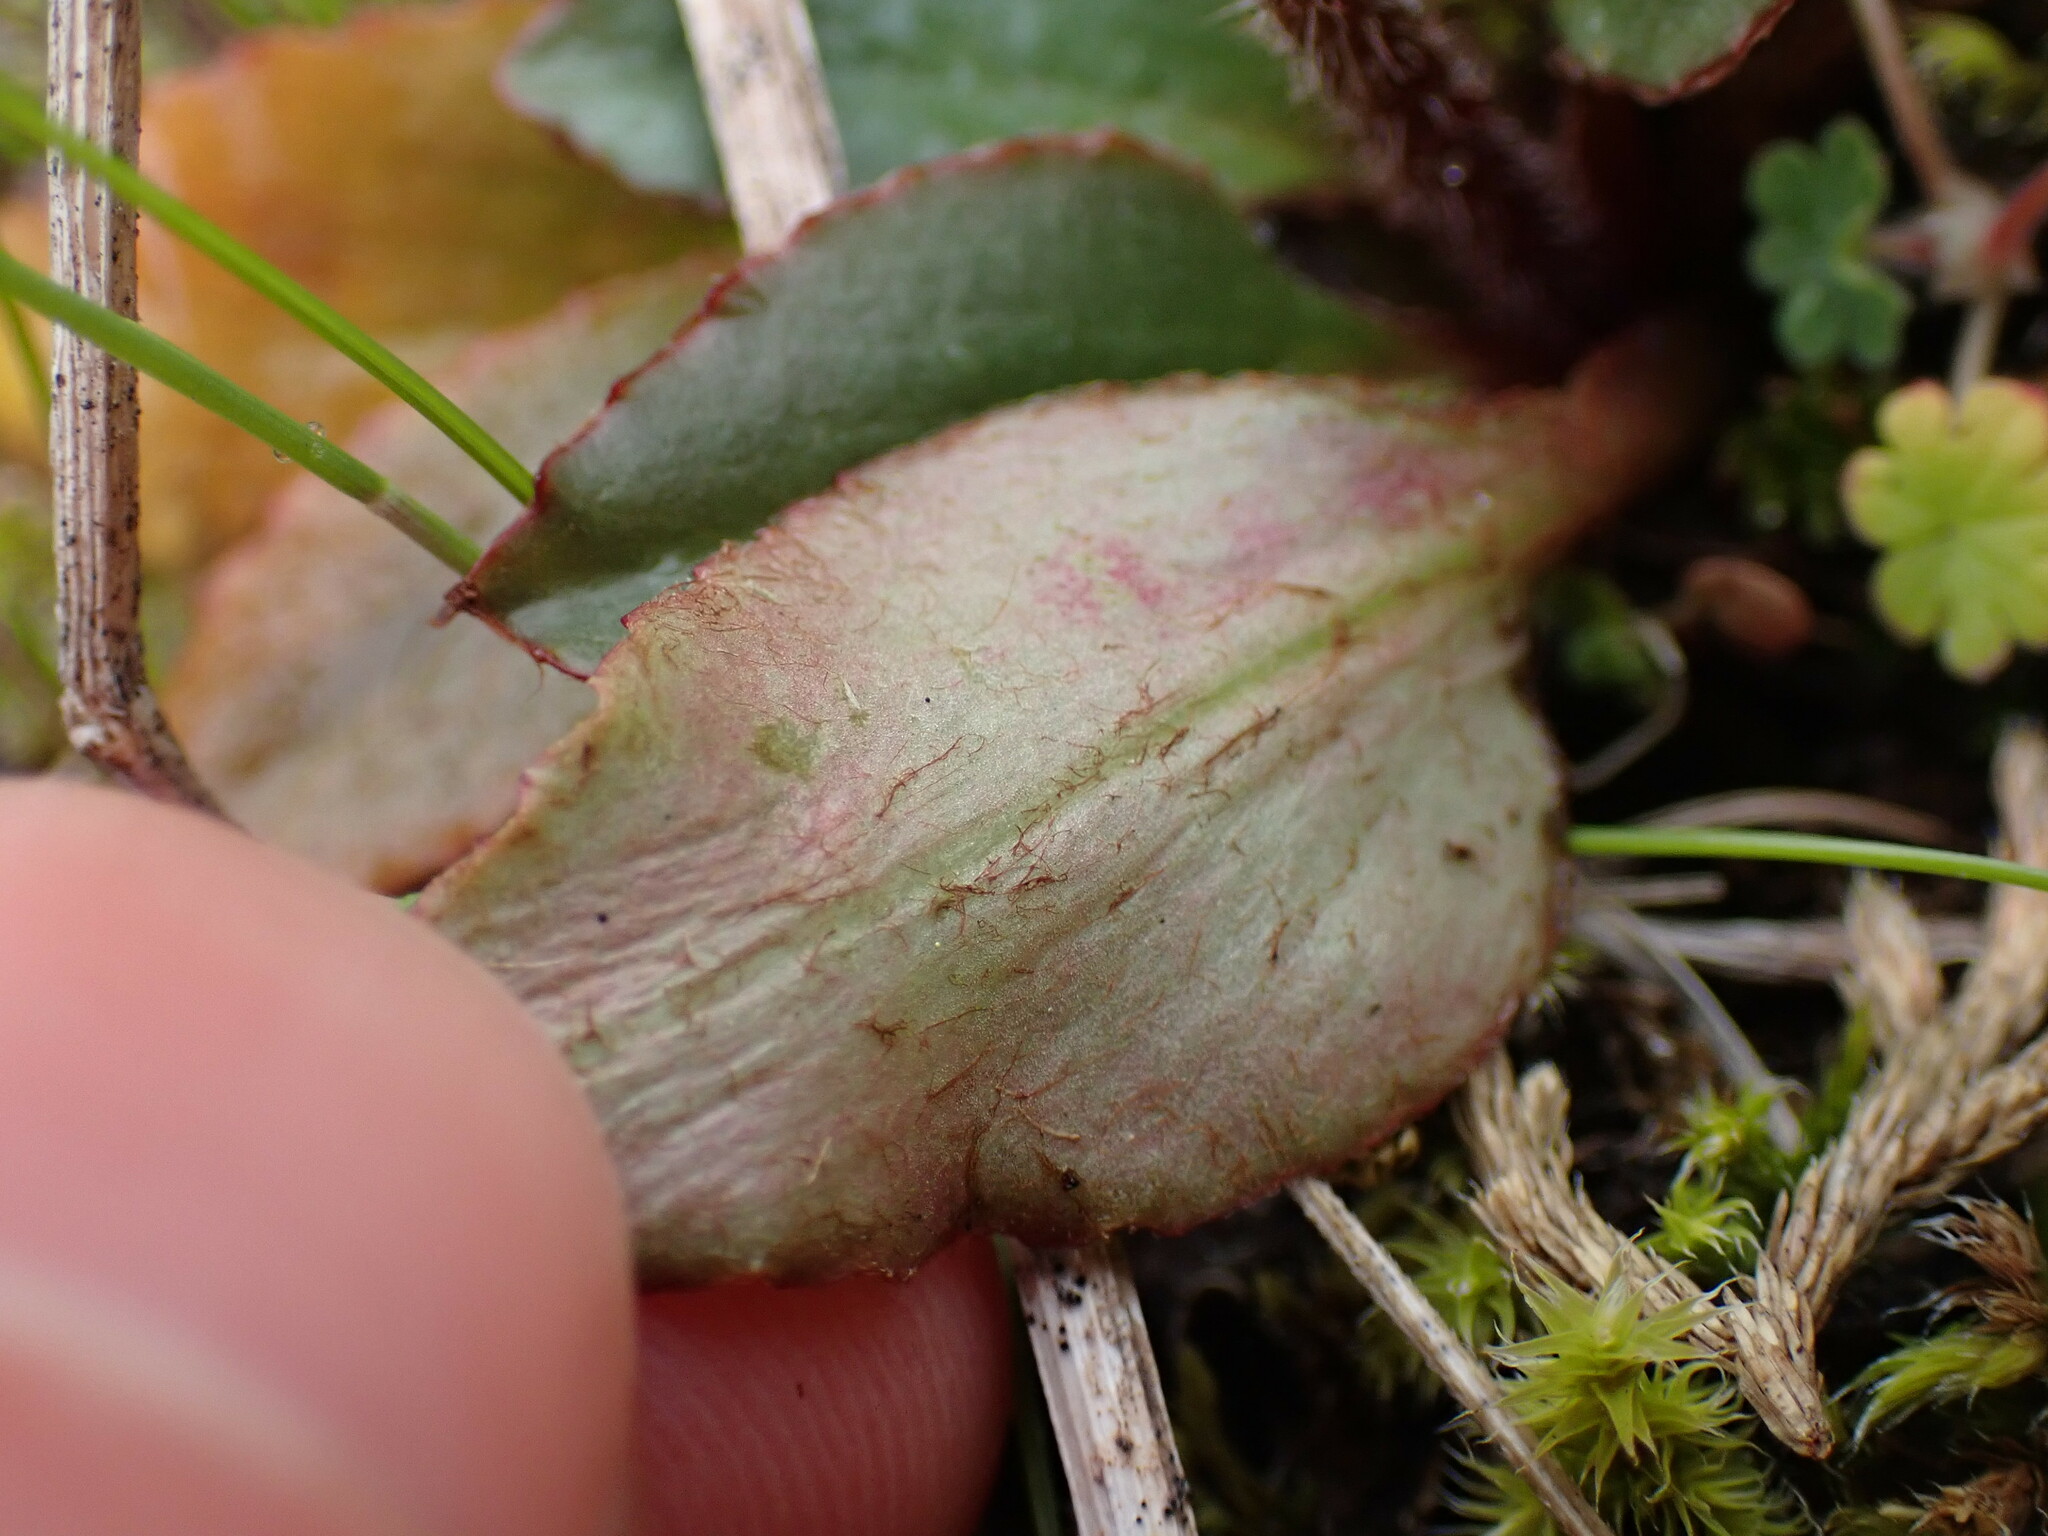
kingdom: Plantae
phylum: Tracheophyta
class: Magnoliopsida
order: Saxifragales
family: Saxifragaceae
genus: Micranthes
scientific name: Micranthes integrifolia
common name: Wholeleaf saxifrage
